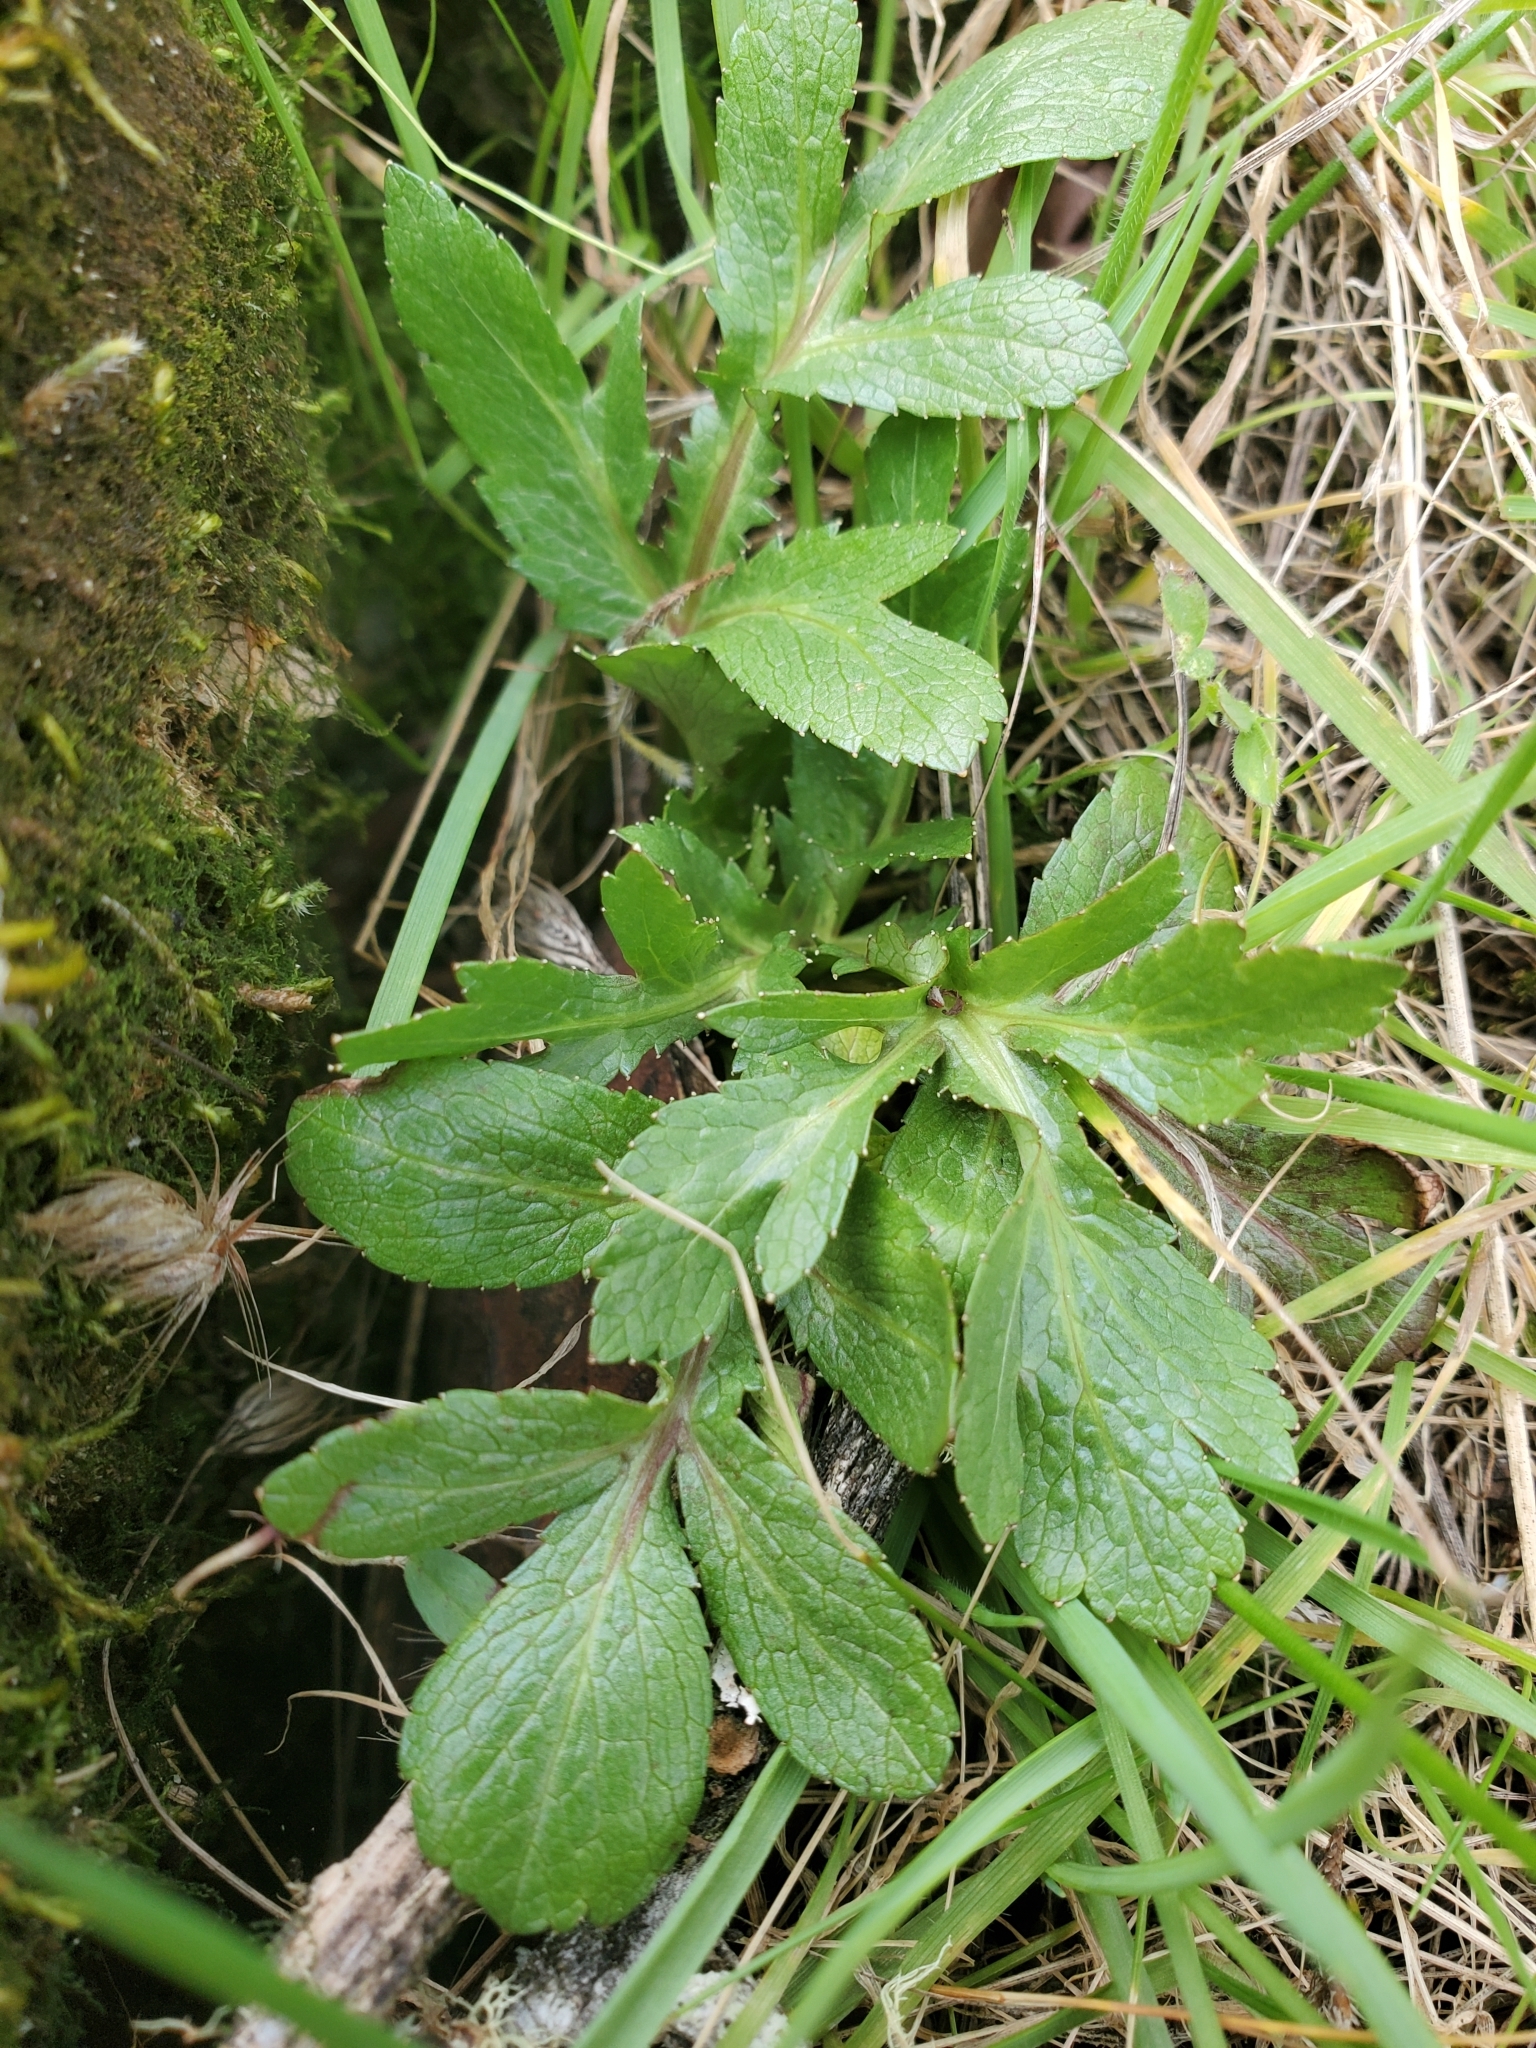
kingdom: Plantae
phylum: Tracheophyta
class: Magnoliopsida
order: Apiales
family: Apiaceae
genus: Sanicula
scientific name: Sanicula bipinnatifida
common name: Shoe-buttons
